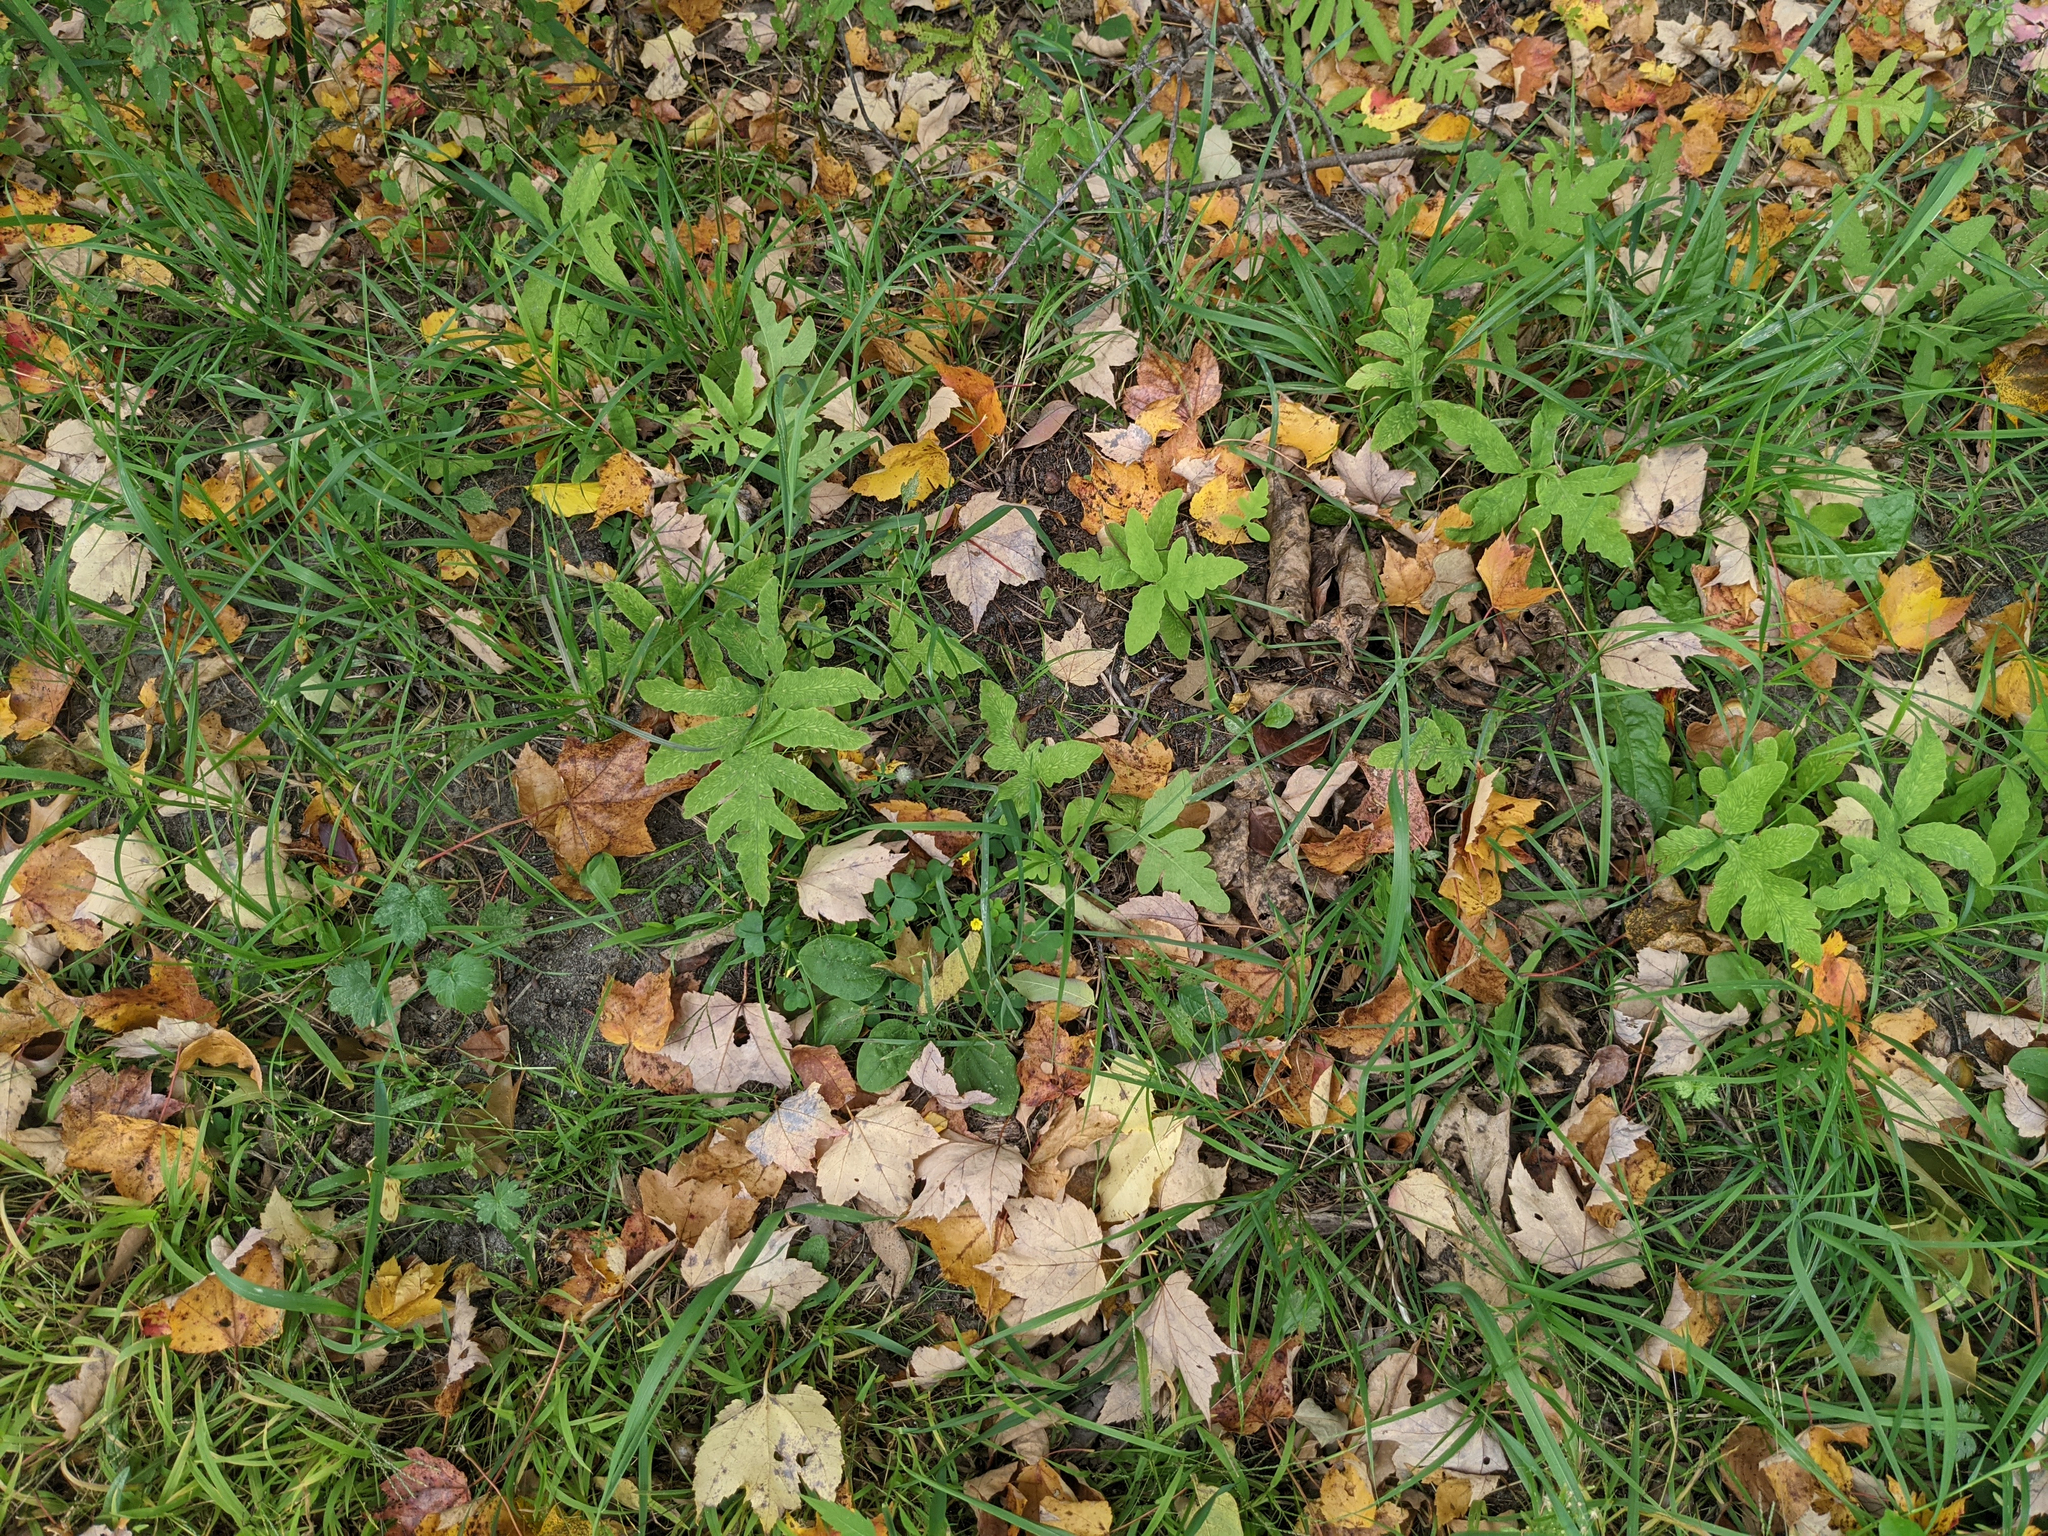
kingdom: Plantae
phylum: Tracheophyta
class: Polypodiopsida
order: Polypodiales
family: Onocleaceae
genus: Onoclea
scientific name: Onoclea sensibilis
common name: Sensitive fern
